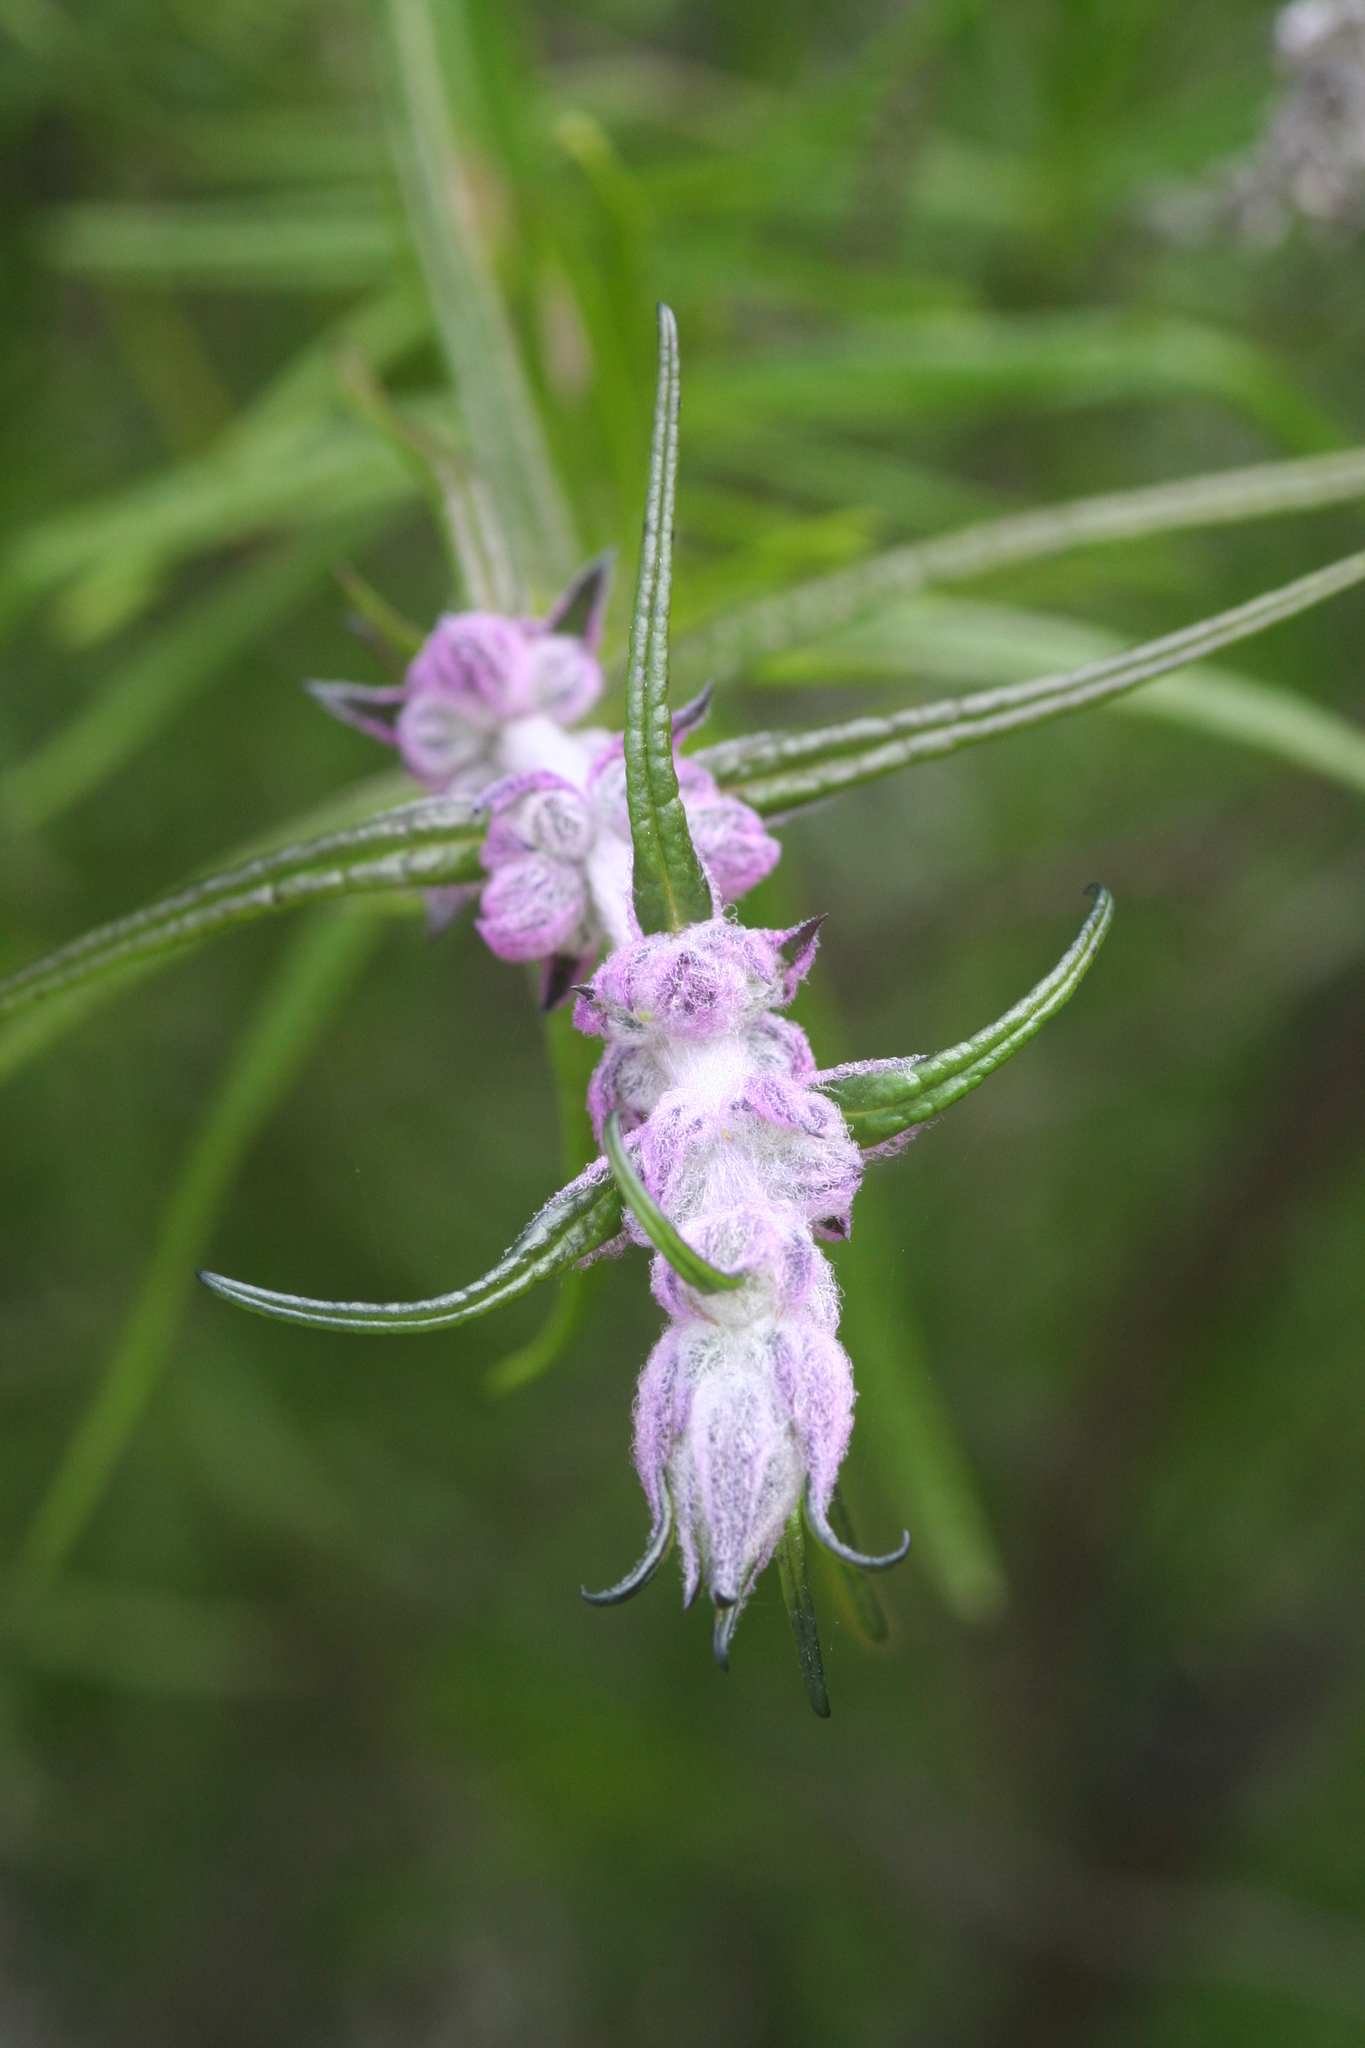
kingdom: Plantae
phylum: Tracheophyta
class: Magnoliopsida
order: Lamiales
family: Lamiaceae
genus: Trichostema
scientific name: Trichostema lanatum
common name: Woolly bluecurls
